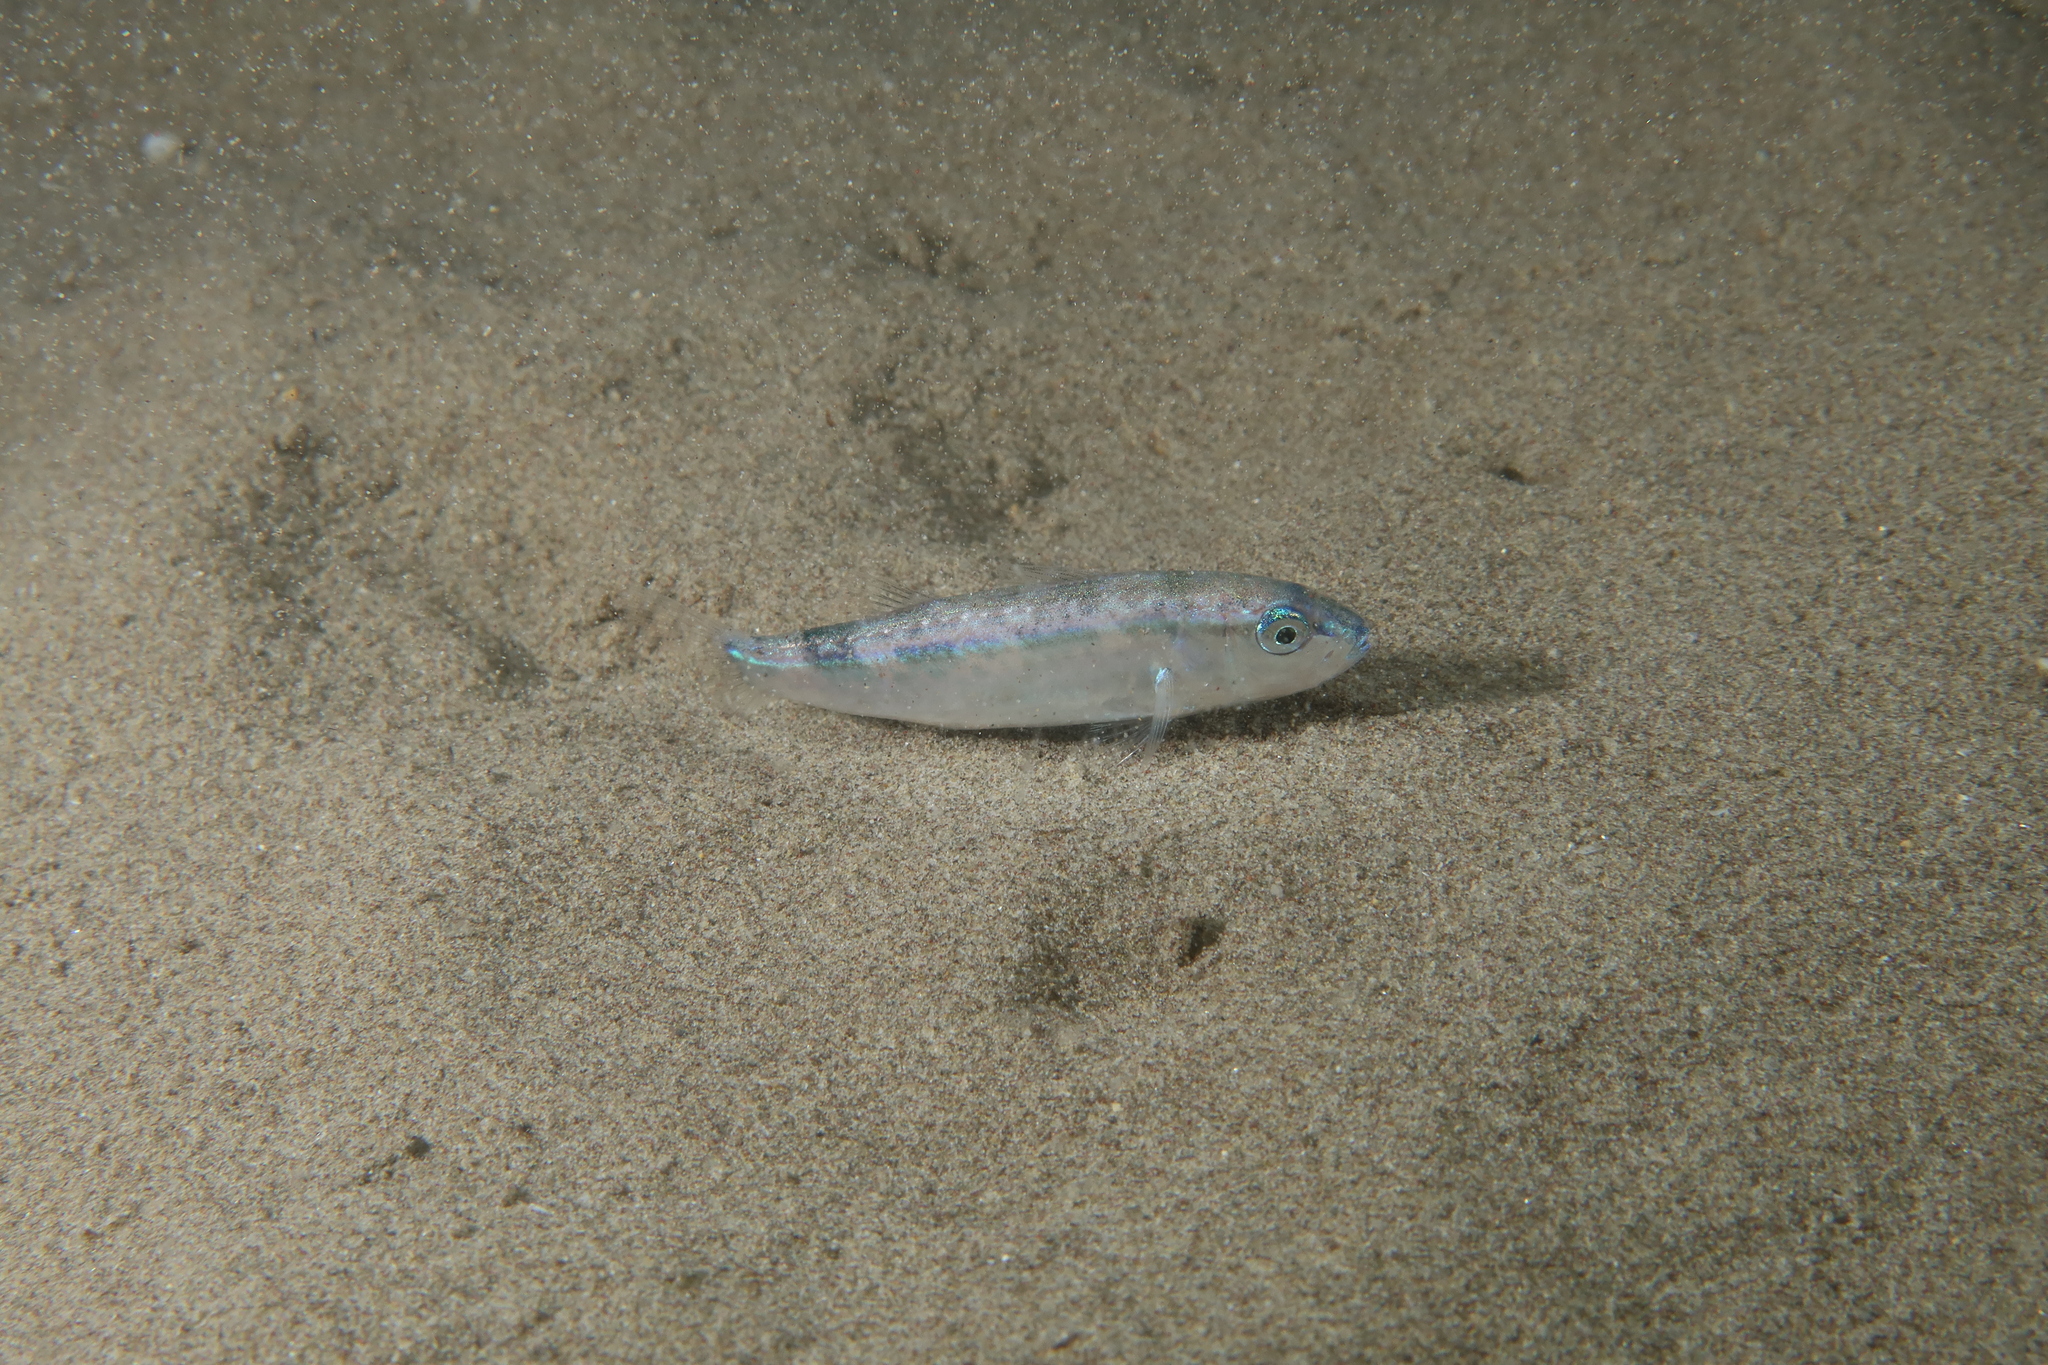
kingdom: Animalia
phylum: Chordata
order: Perciformes
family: Mullidae
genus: Mullus
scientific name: Mullus barbatus
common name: Blunt-snouted mullet
